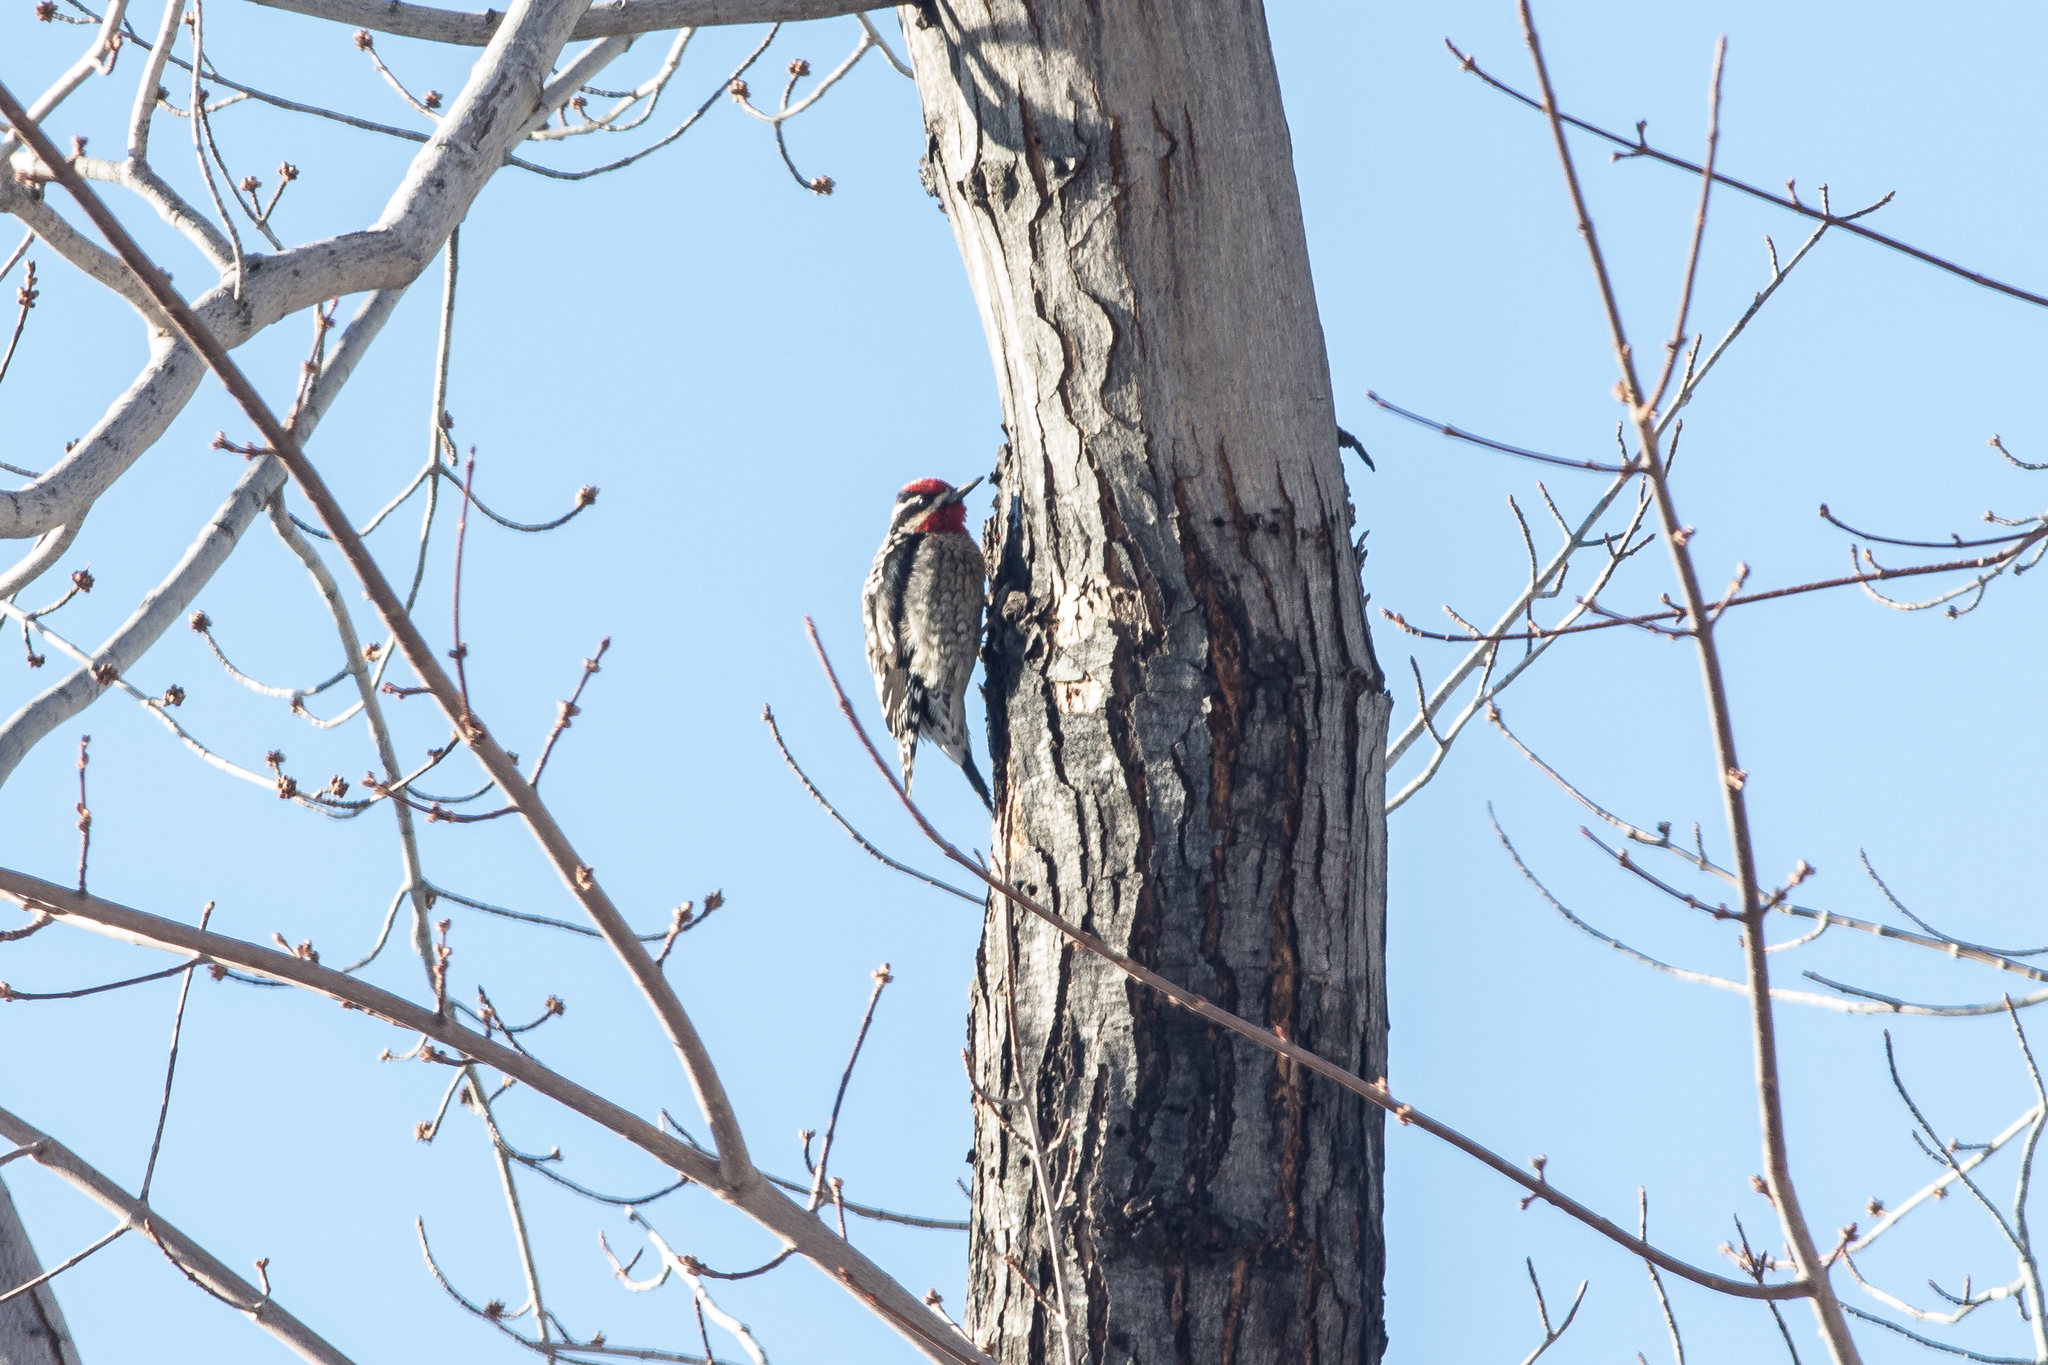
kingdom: Animalia
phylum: Chordata
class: Aves
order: Piciformes
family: Picidae
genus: Sphyrapicus
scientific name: Sphyrapicus nuchalis
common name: Red-naped sapsucker
